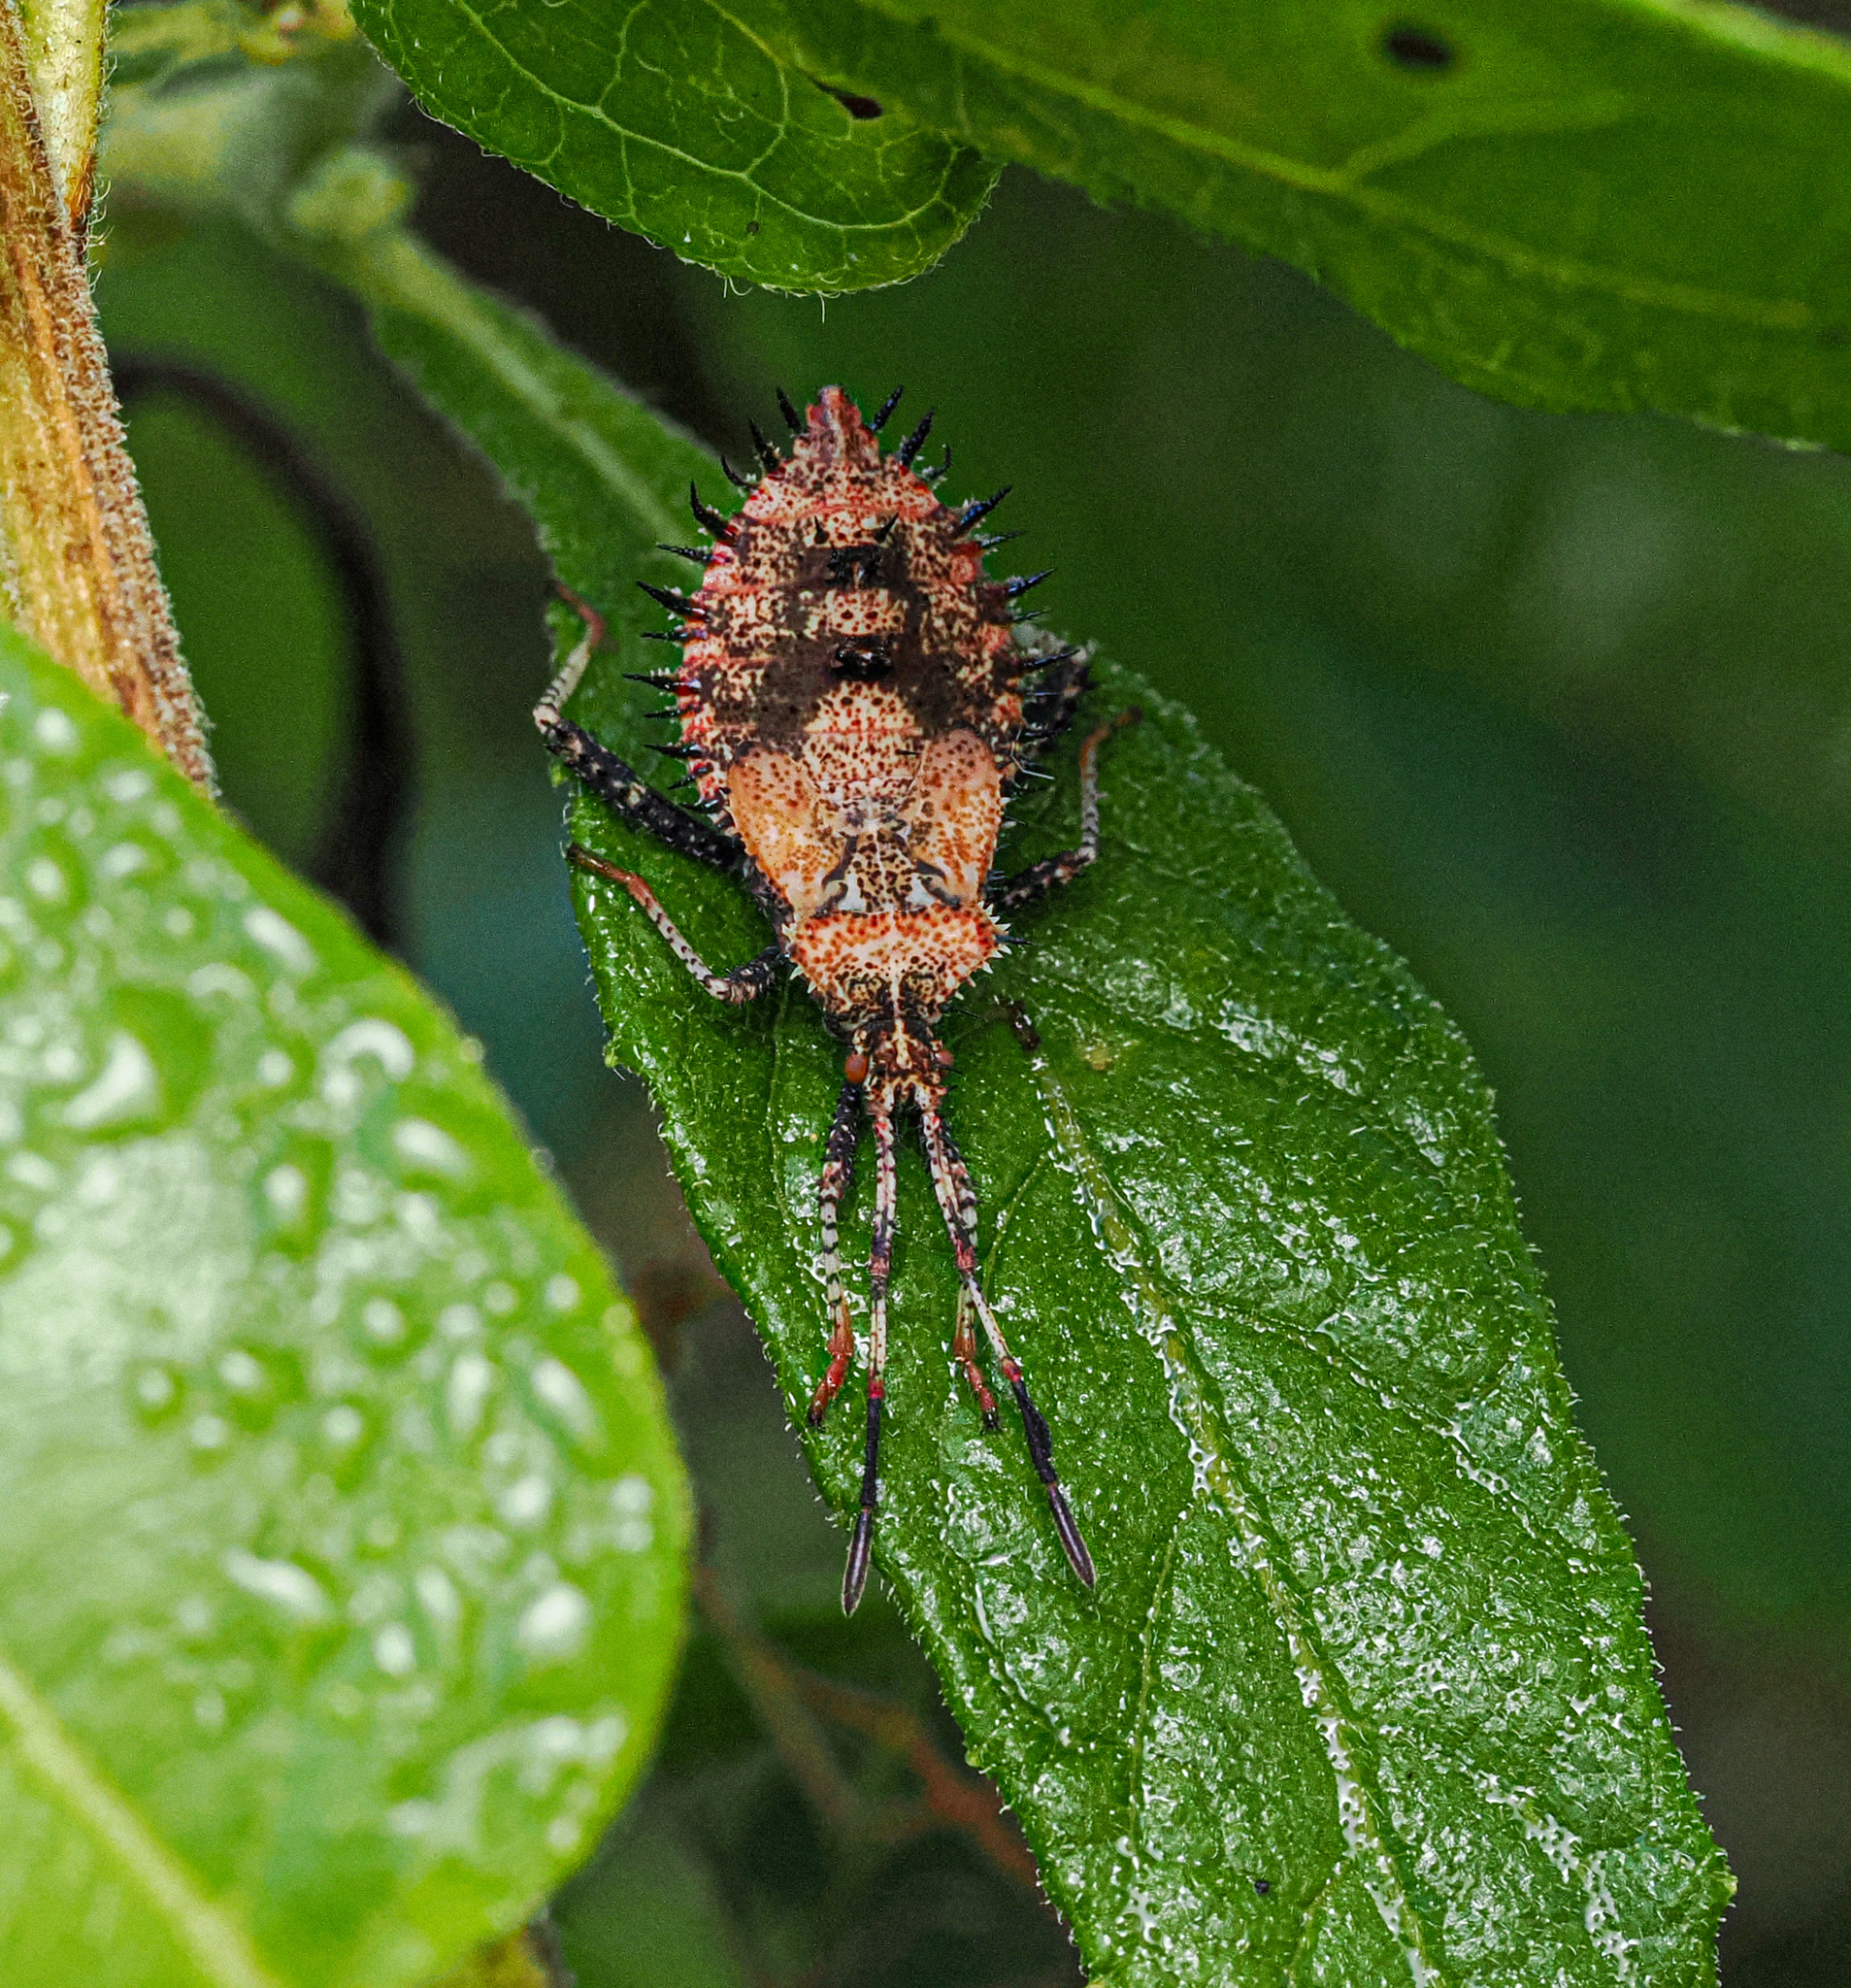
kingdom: Animalia
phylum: Arthropoda
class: Insecta
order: Hemiptera
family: Coreidae
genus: Euthochtha
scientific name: Euthochtha galeator
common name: Helmeted squash bug
